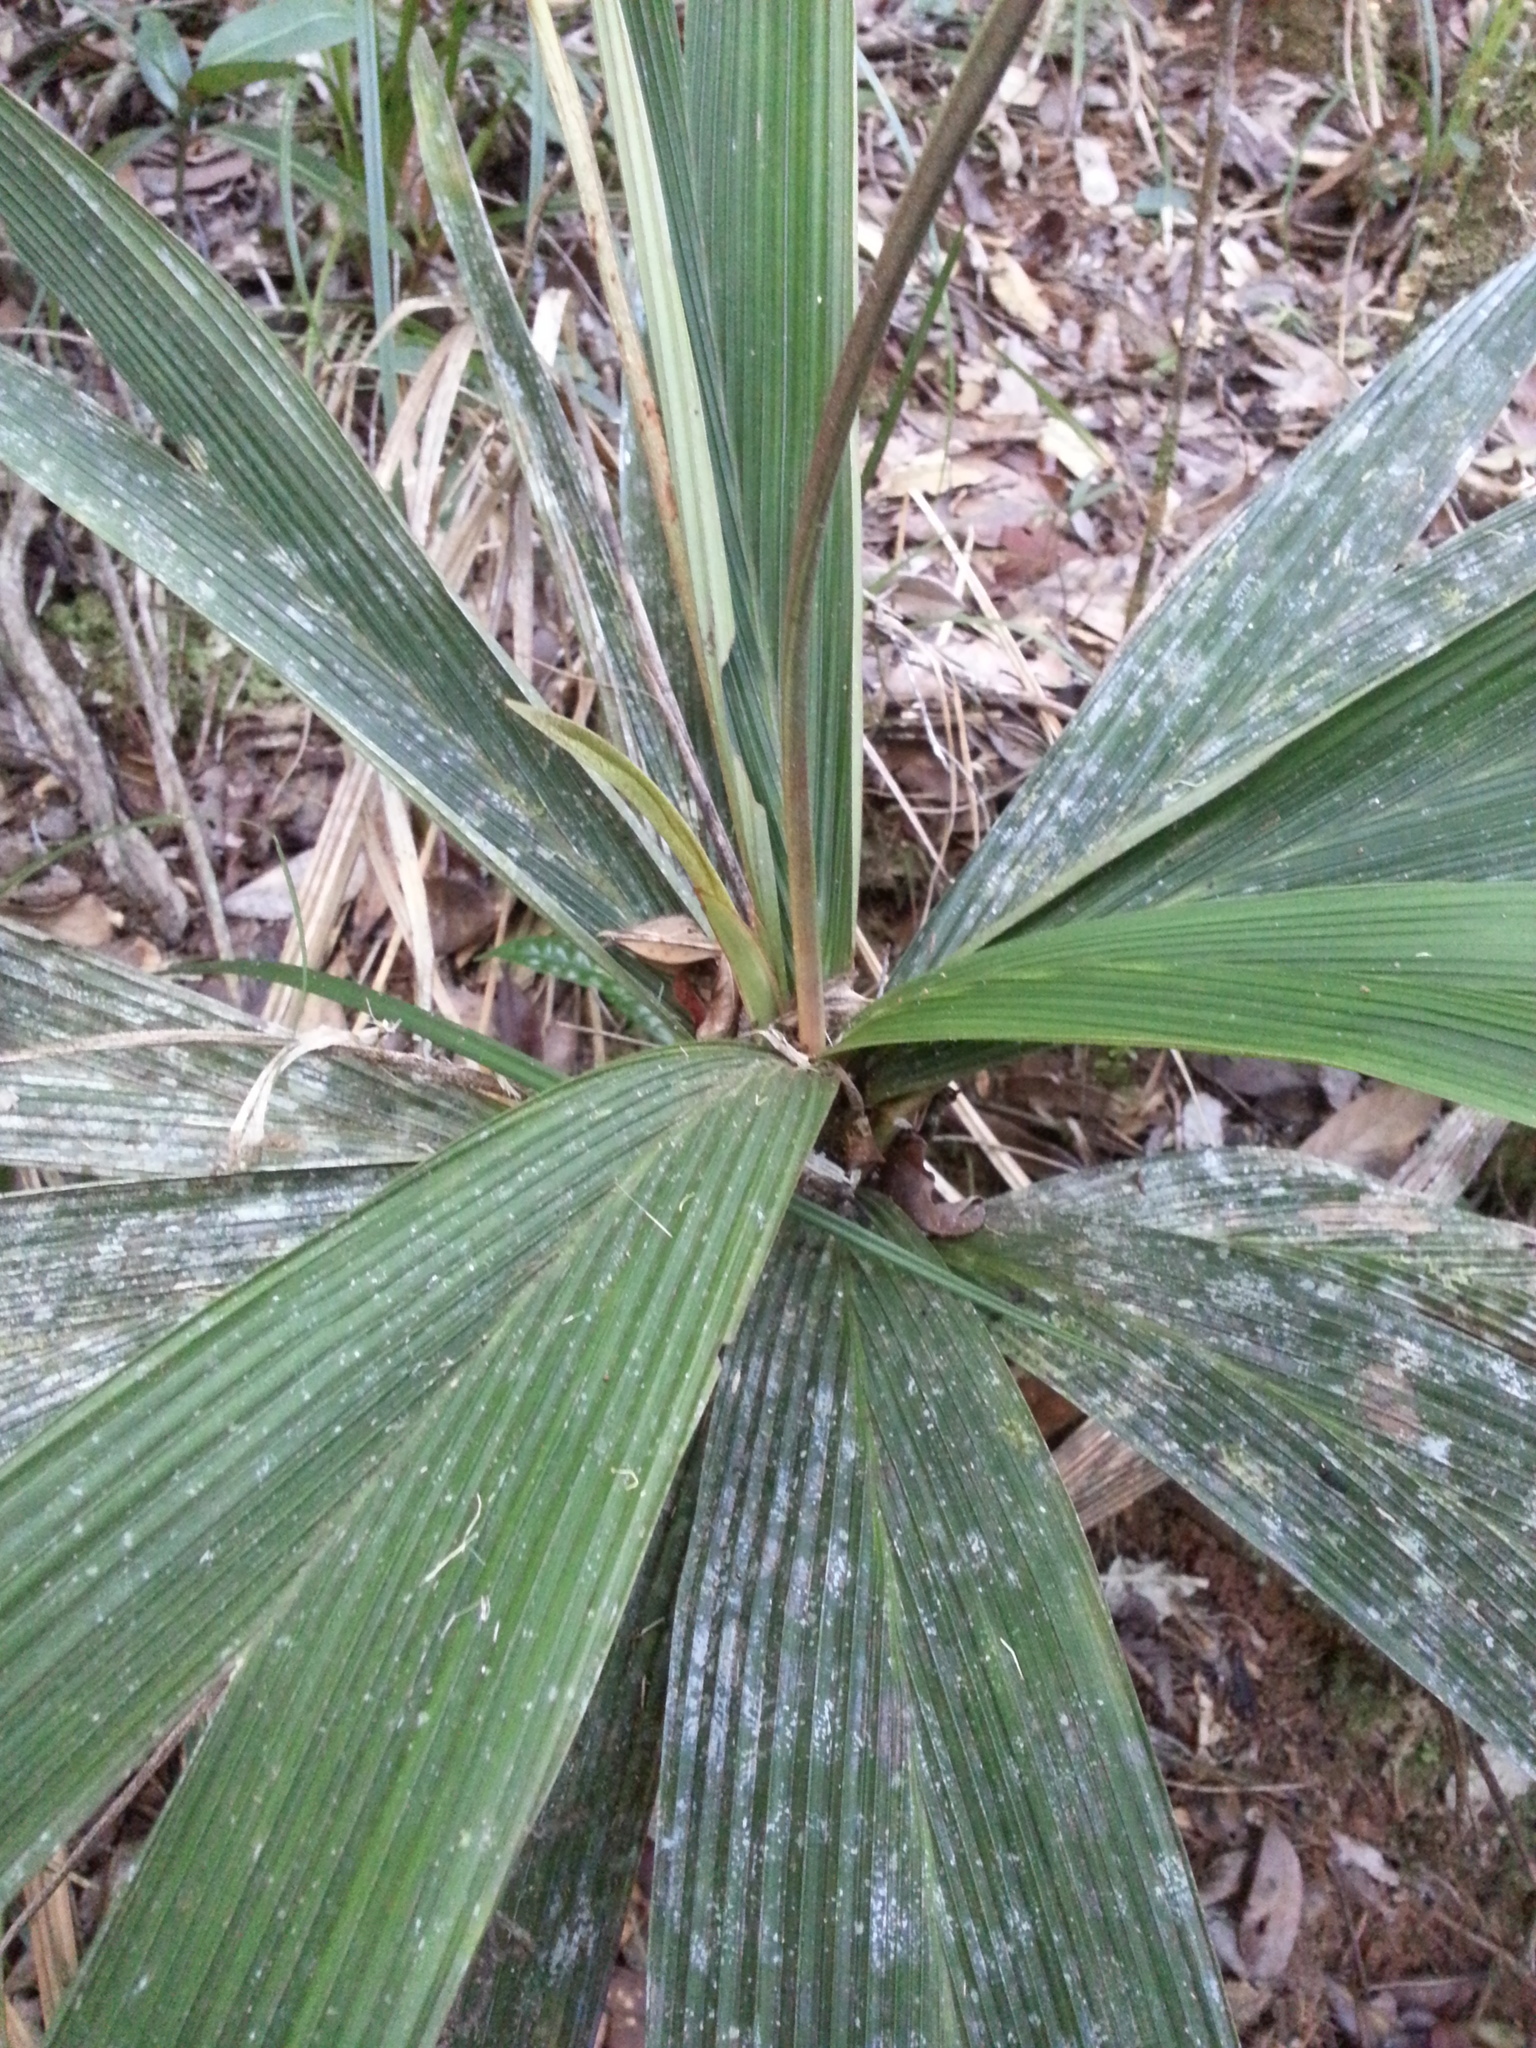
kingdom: Plantae
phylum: Tracheophyta
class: Liliopsida
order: Arecales
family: Arecaceae
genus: Dypsis
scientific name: Dypsis louvelii
